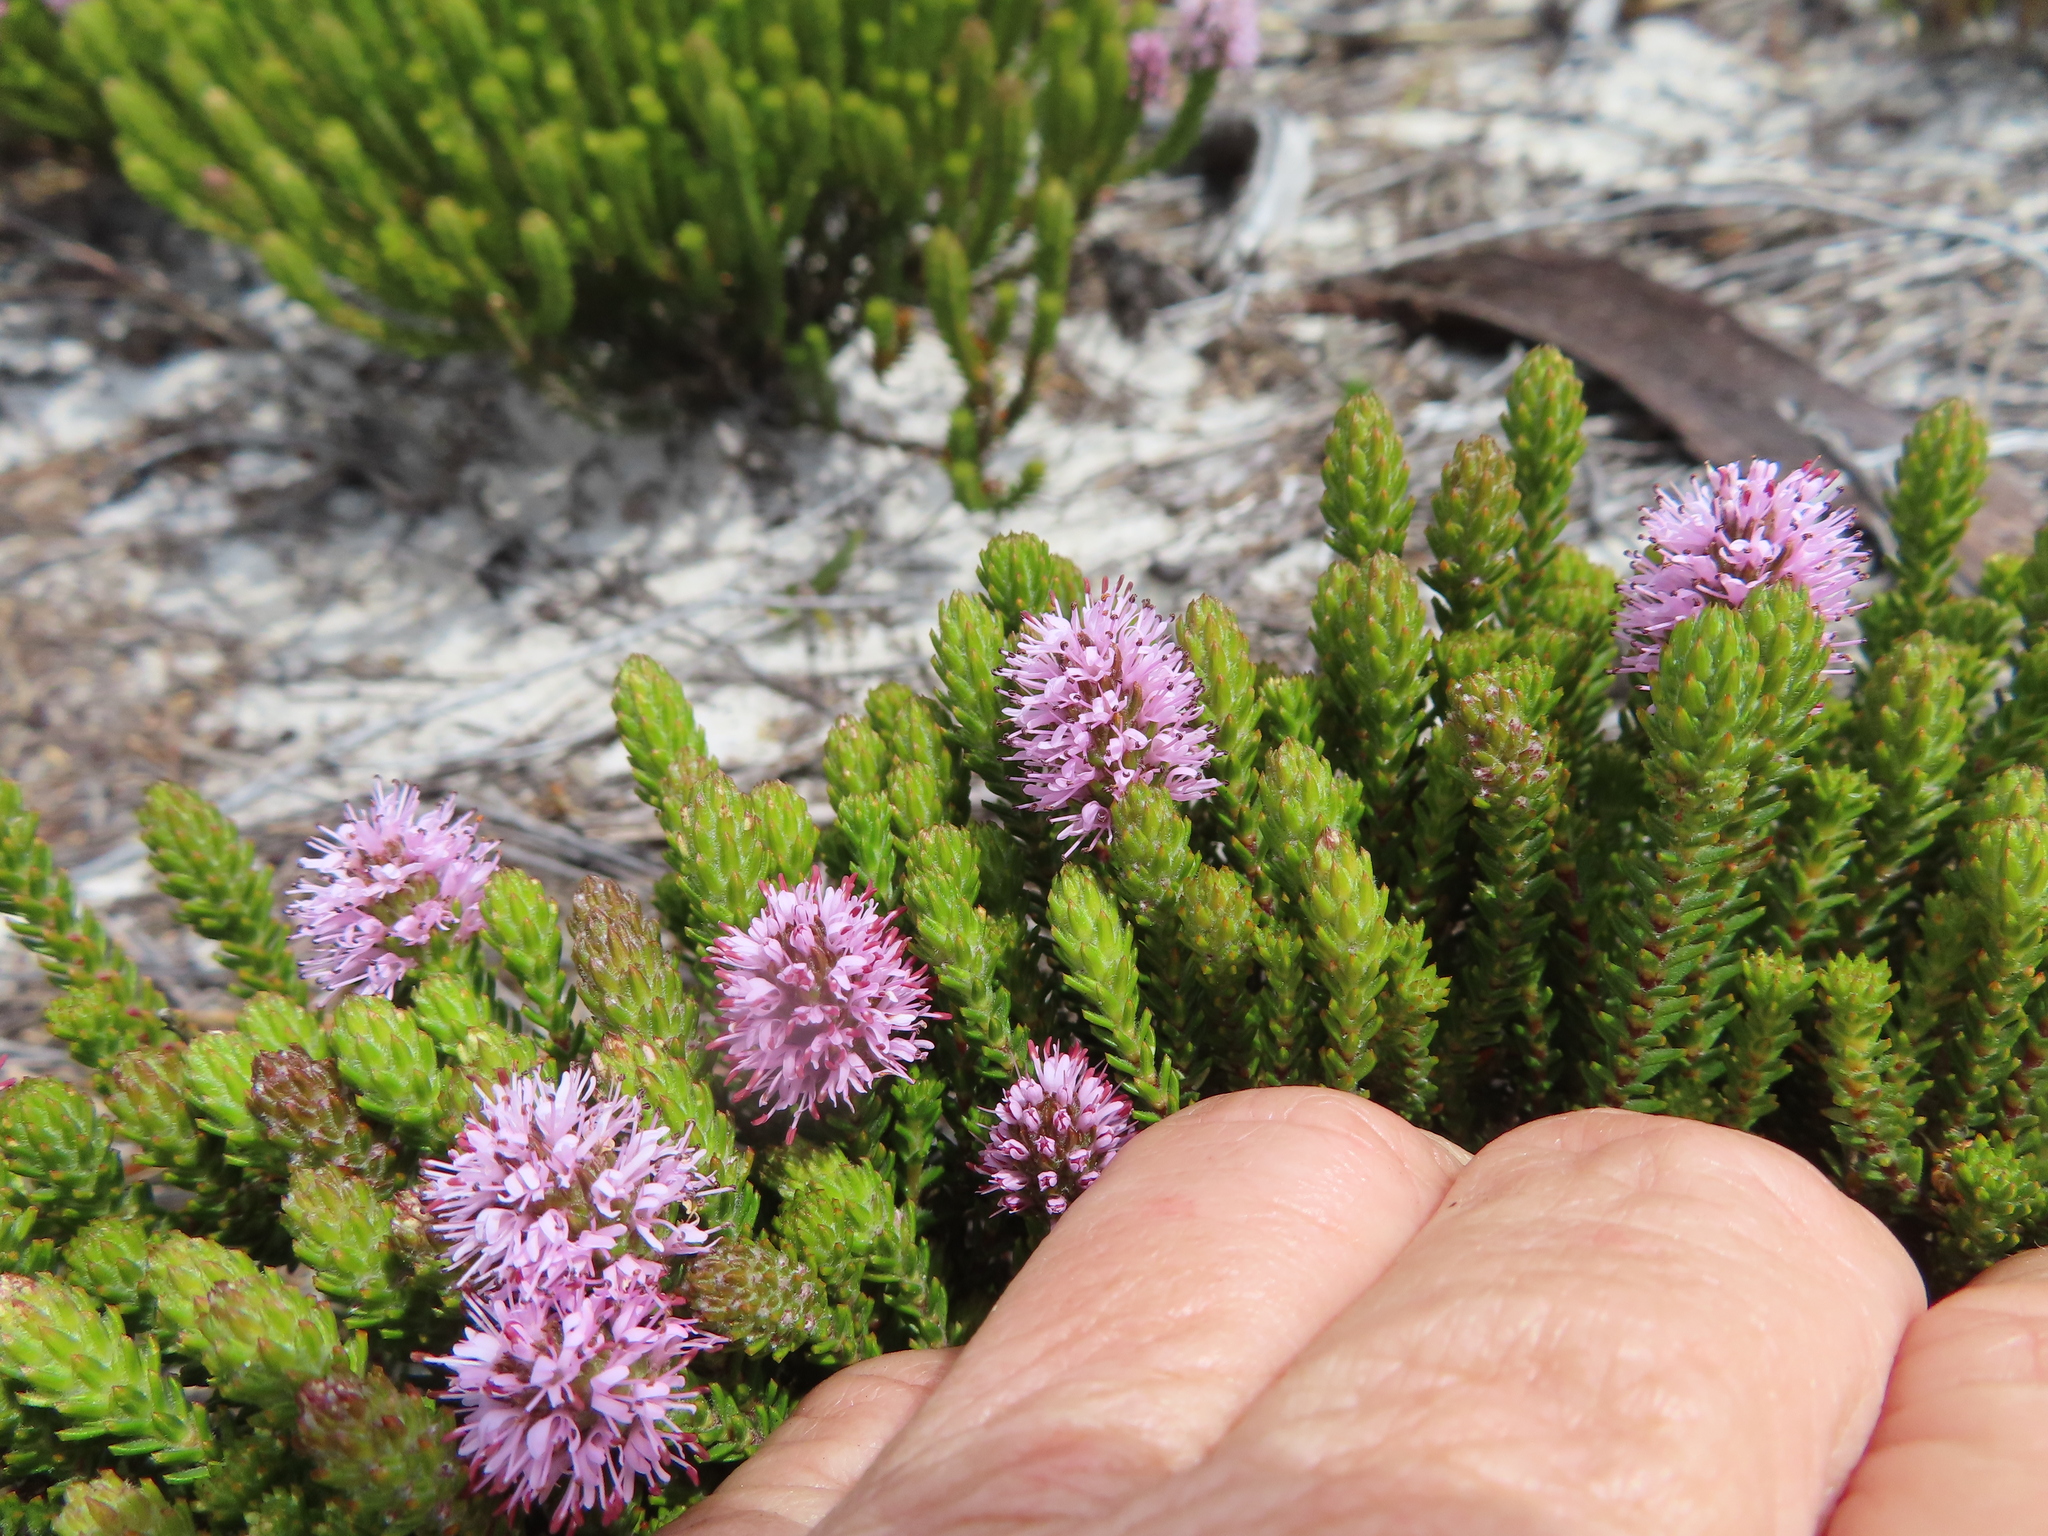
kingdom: Plantae
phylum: Tracheophyta
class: Magnoliopsida
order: Lamiales
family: Stilbaceae
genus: Stilbe
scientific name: Stilbe ericoides
